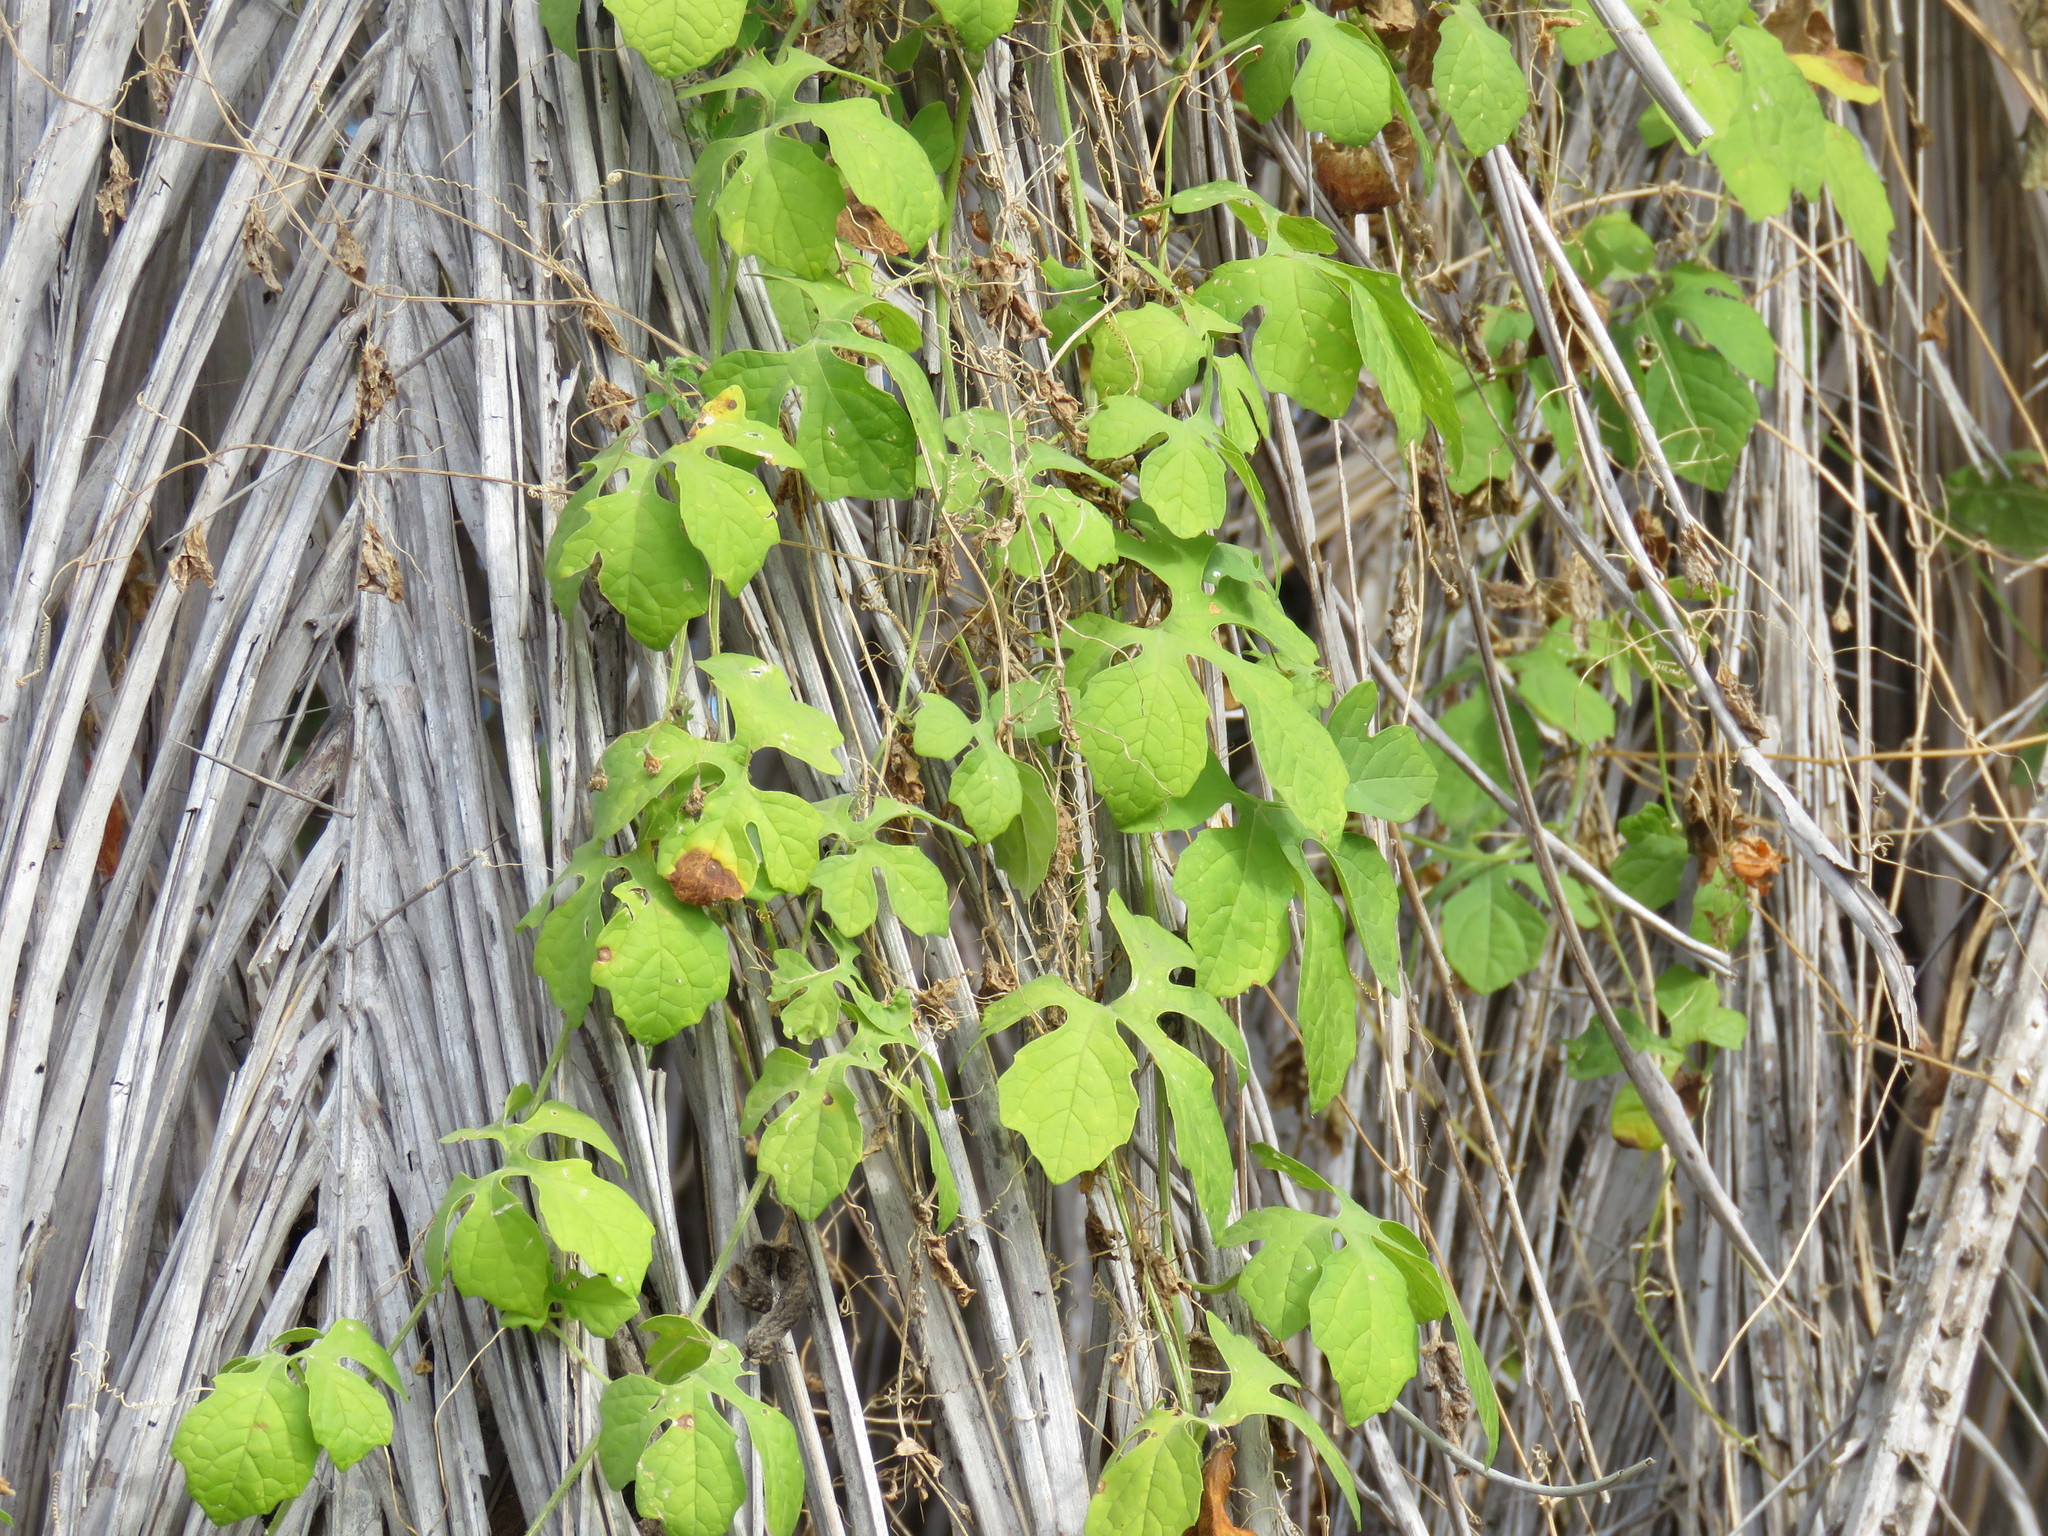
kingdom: Plantae
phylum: Tracheophyta
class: Magnoliopsida
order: Cucurbitales
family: Cucurbitaceae
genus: Momordica
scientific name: Momordica charantia
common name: Balsampear
